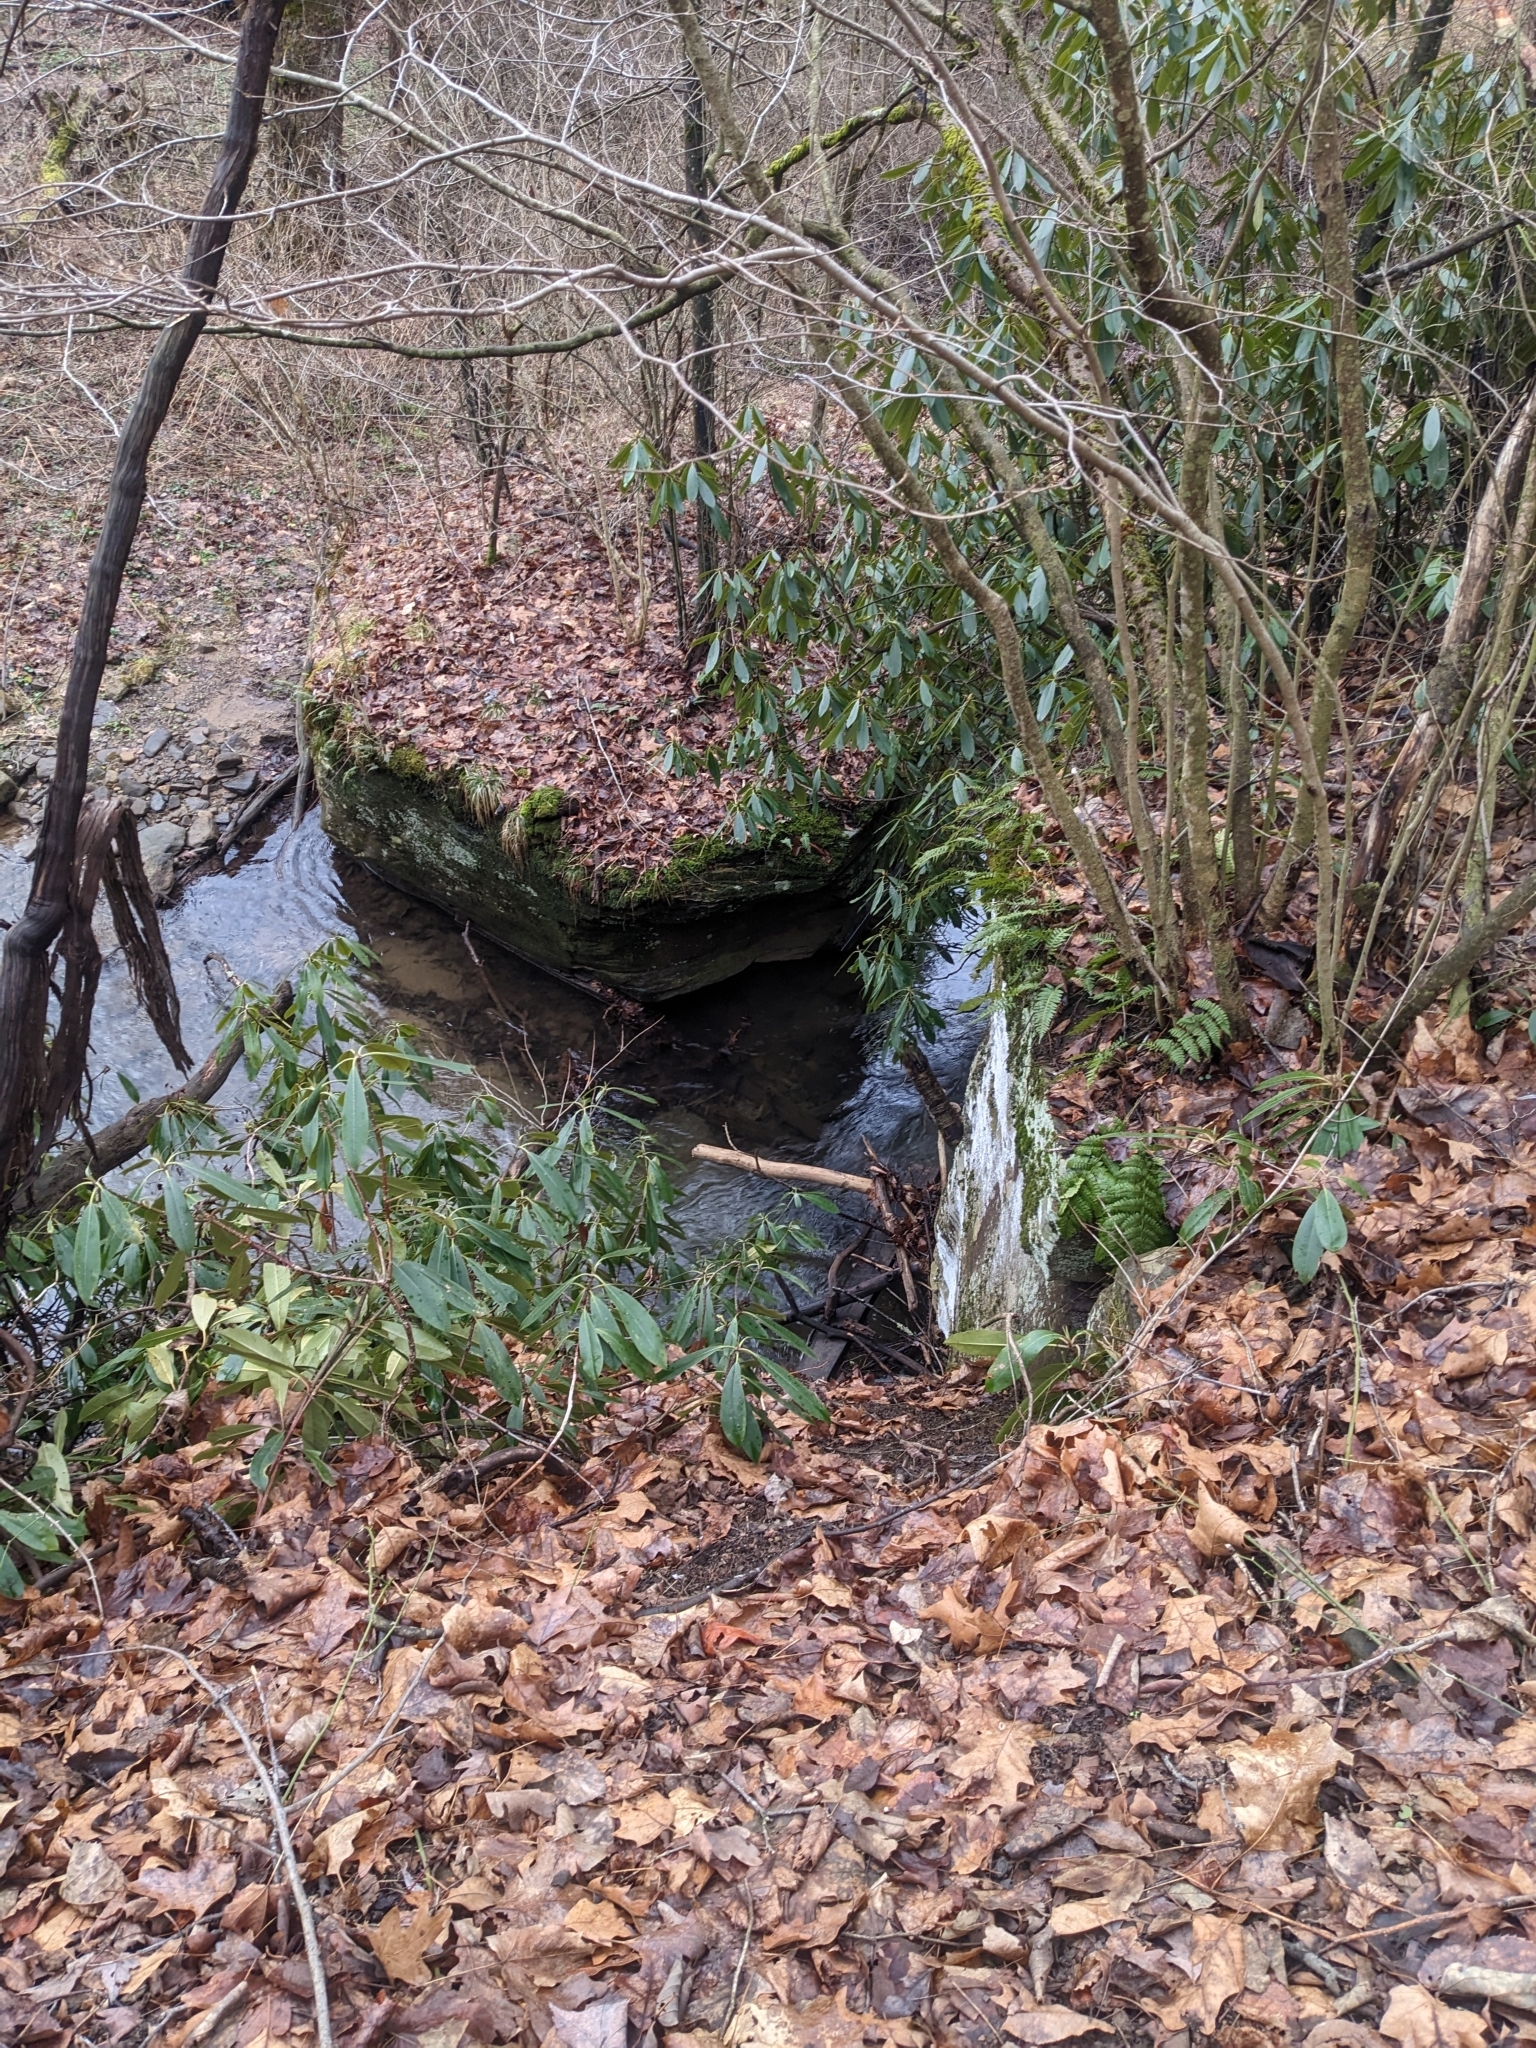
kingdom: Plantae
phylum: Tracheophyta
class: Magnoliopsida
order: Ericales
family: Ericaceae
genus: Rhododendron
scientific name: Rhododendron maximum
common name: Great rhododendron
